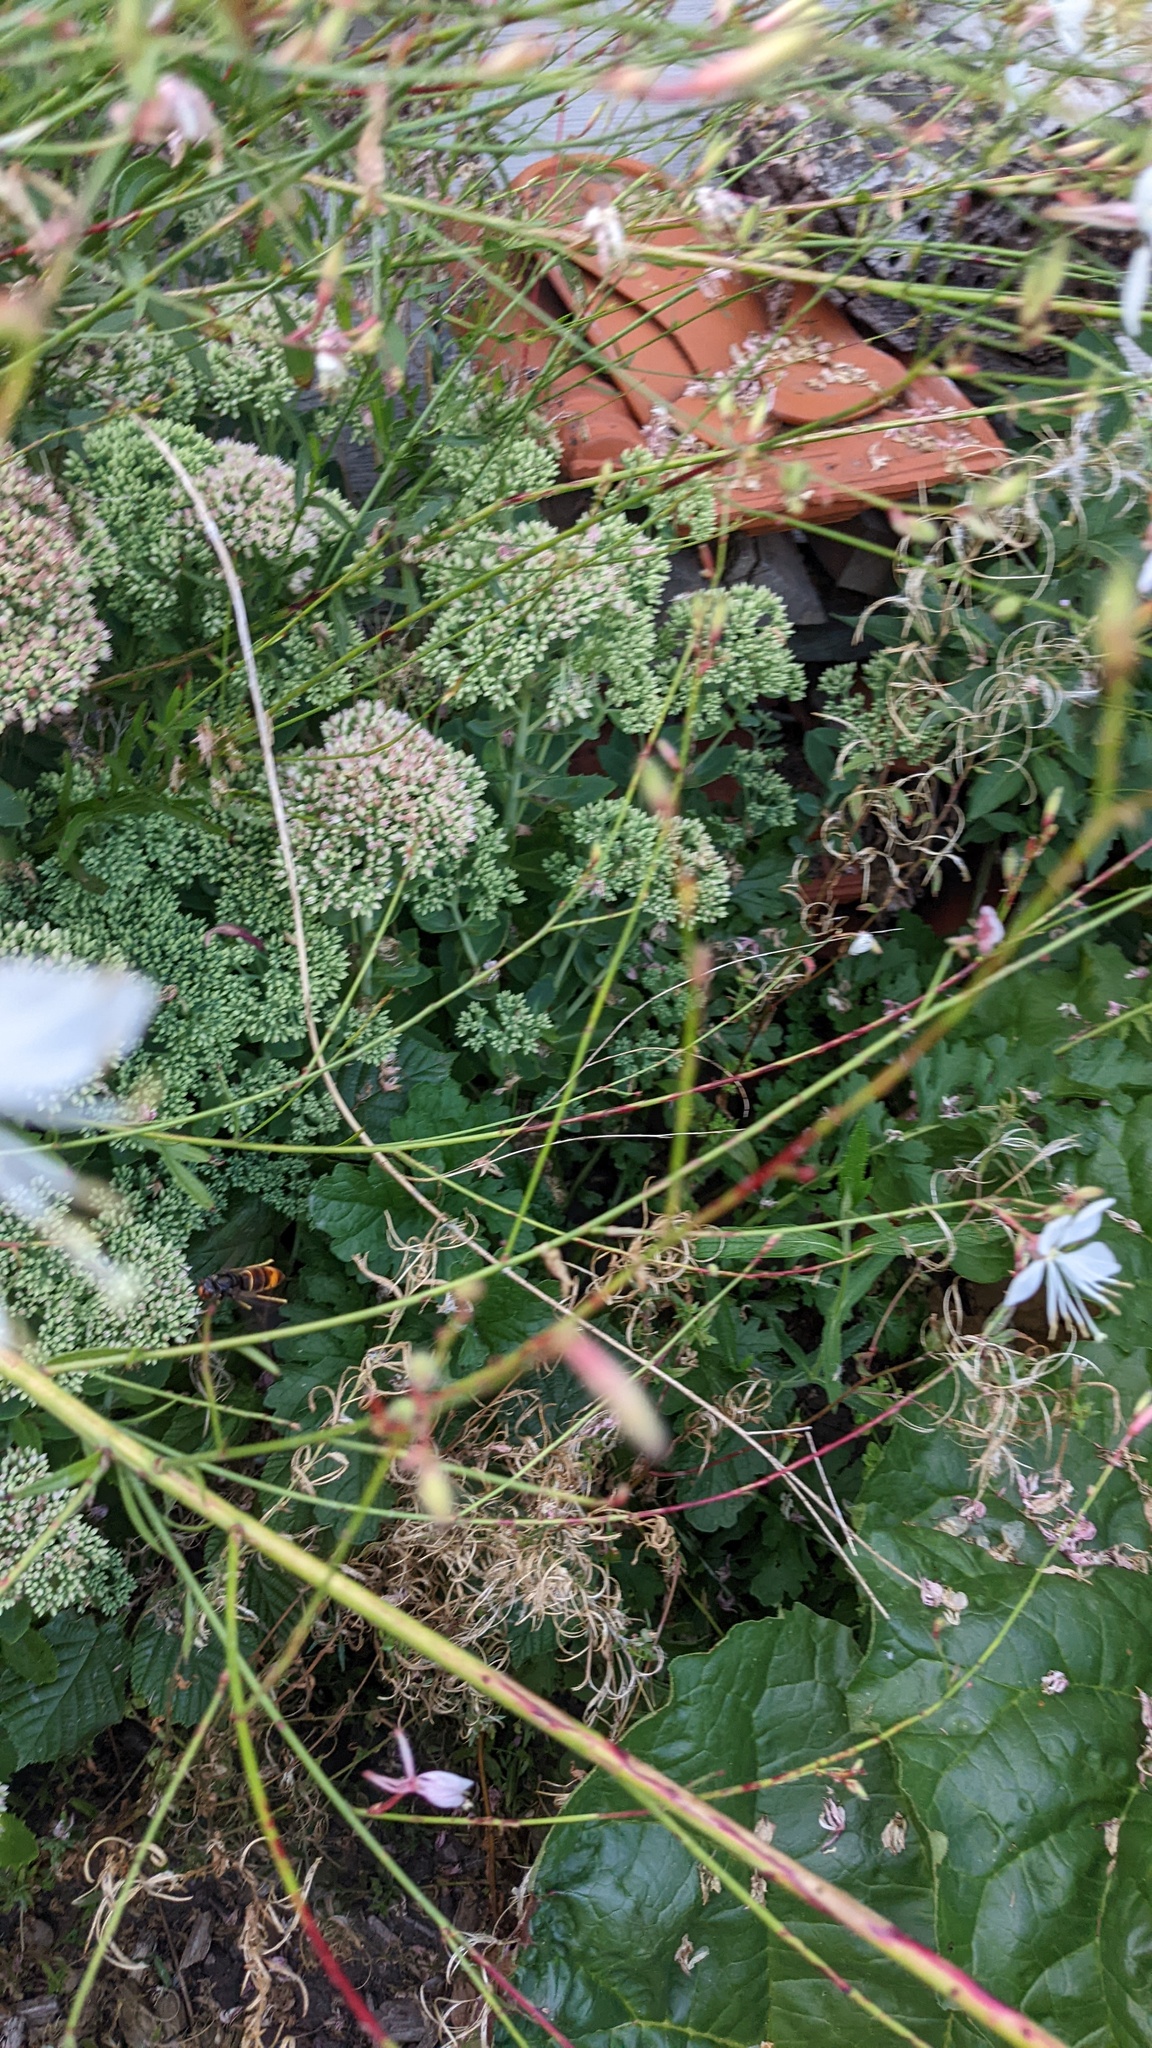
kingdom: Animalia
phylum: Arthropoda
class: Insecta
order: Hymenoptera
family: Vespidae
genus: Vespa
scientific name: Vespa velutina
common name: Asian hornet
